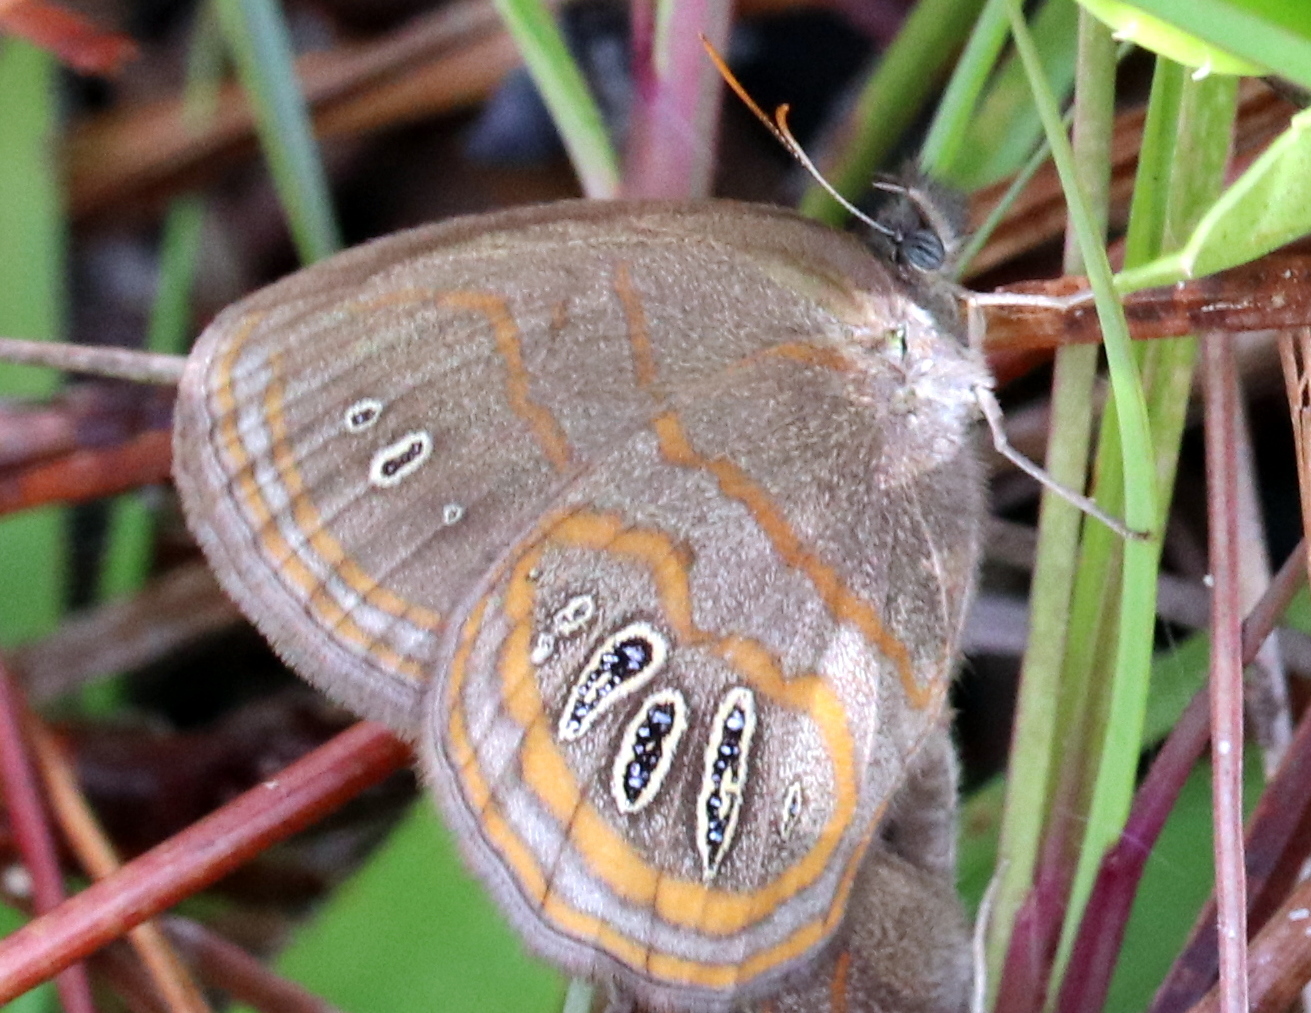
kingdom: Animalia
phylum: Arthropoda
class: Insecta
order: Lepidoptera
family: Nymphalidae
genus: Euptychia
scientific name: Euptychia phocion
